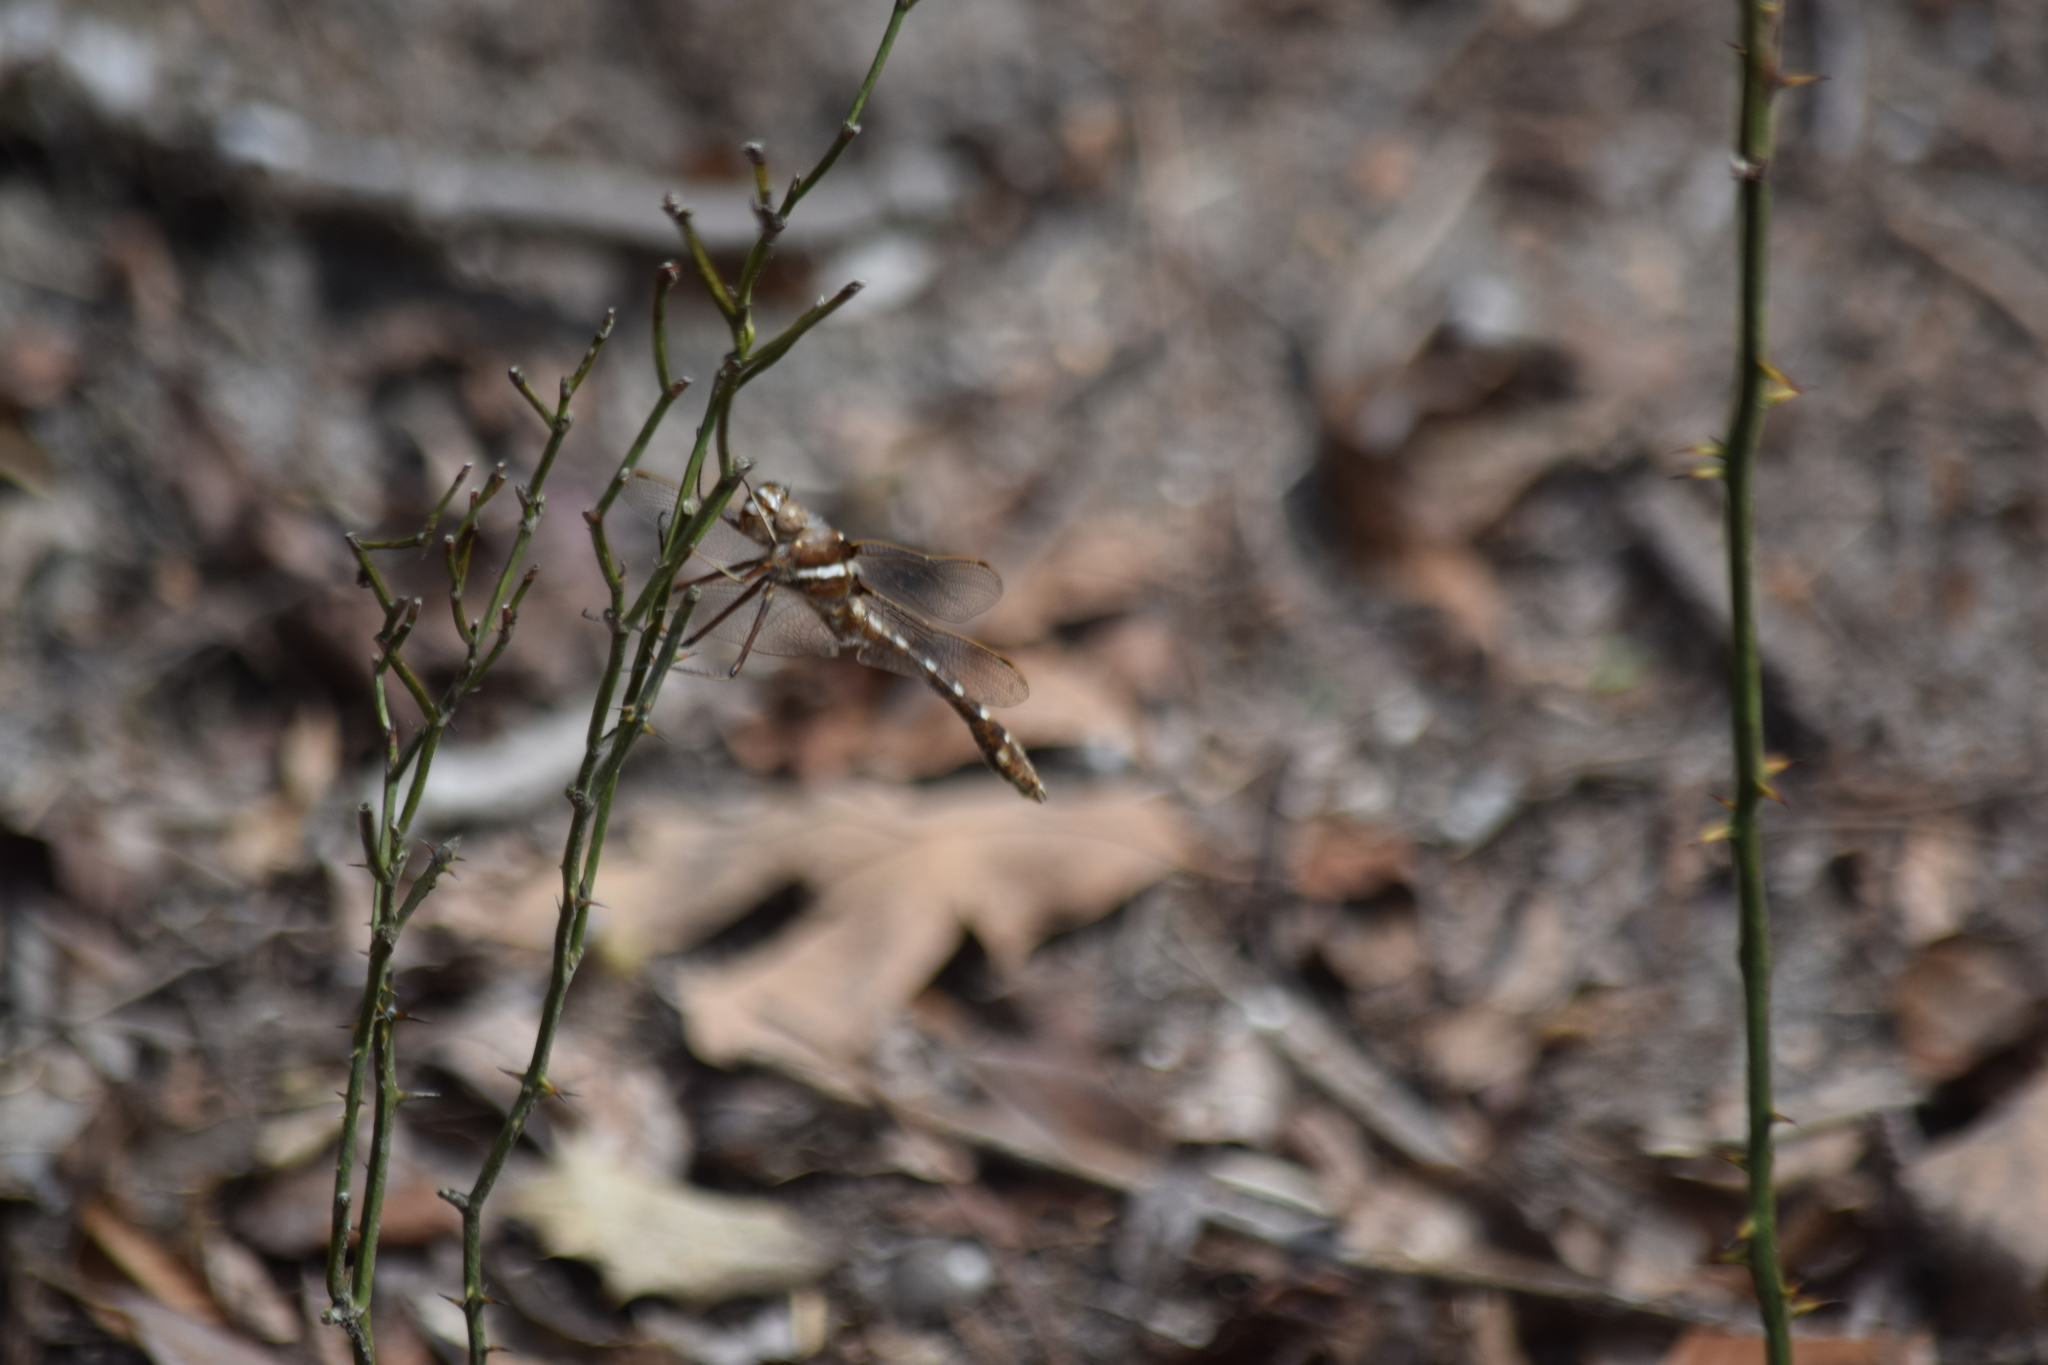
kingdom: Animalia
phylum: Arthropoda
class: Insecta
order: Odonata
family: Macromiidae
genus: Didymops
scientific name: Didymops transversa
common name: Stream cruiser
